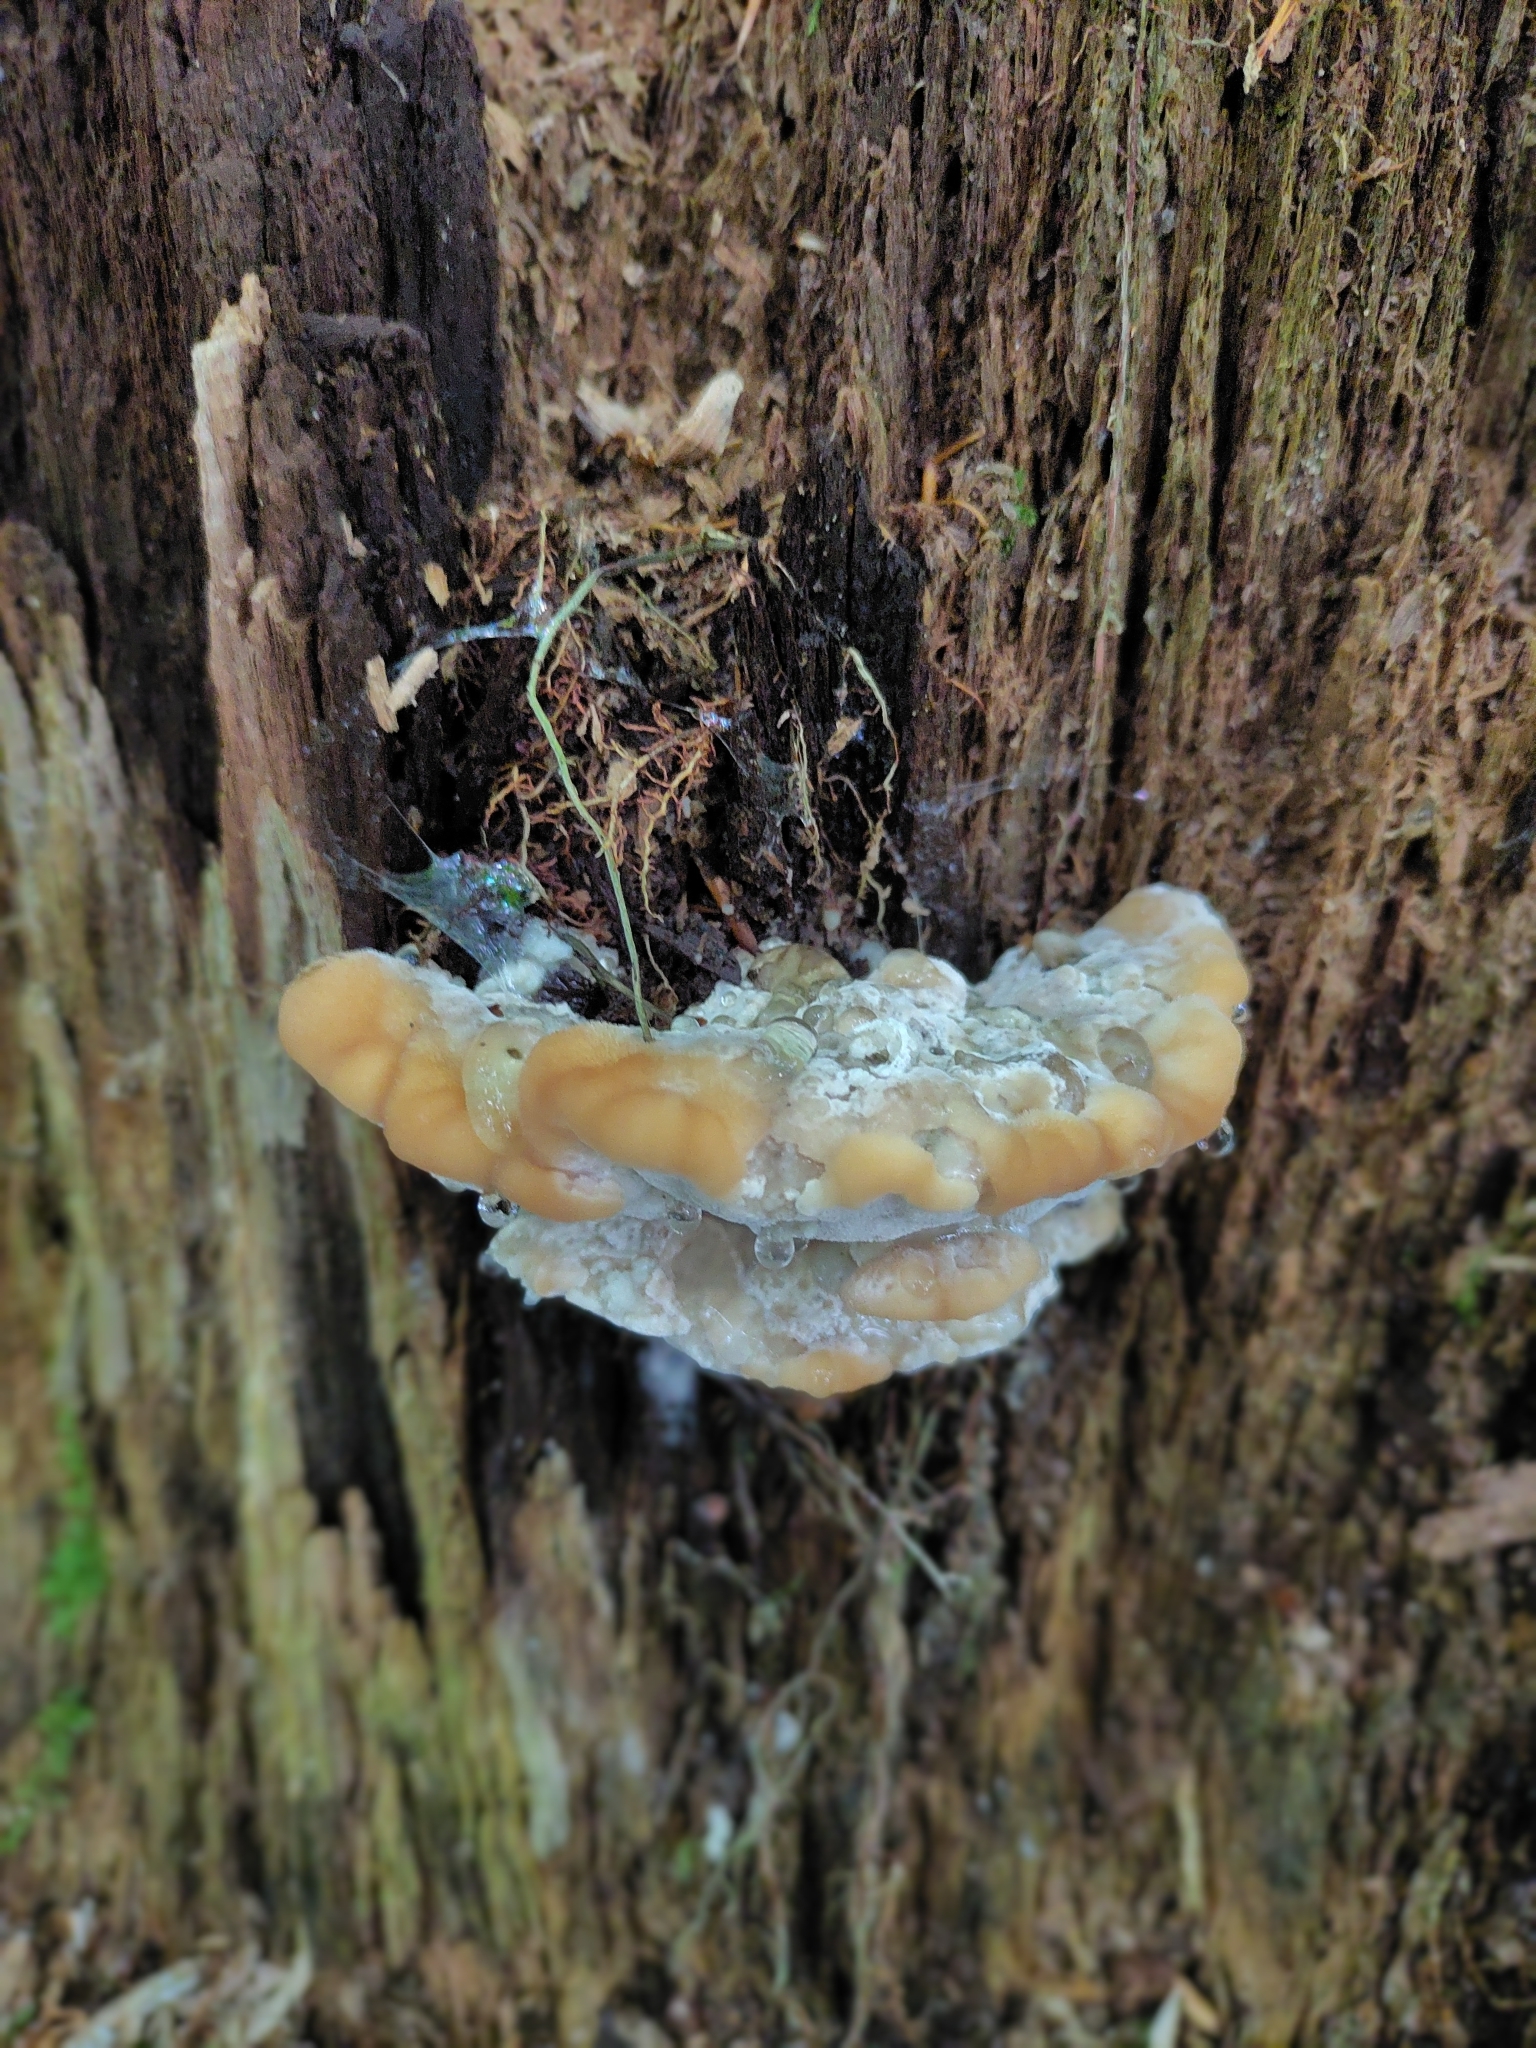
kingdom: Fungi
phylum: Basidiomycota
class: Agaricomycetes
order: Polyporales
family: Fomitopsidaceae
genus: Niveoporofomes
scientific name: Niveoporofomes spraguei
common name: Green cheese polypore
